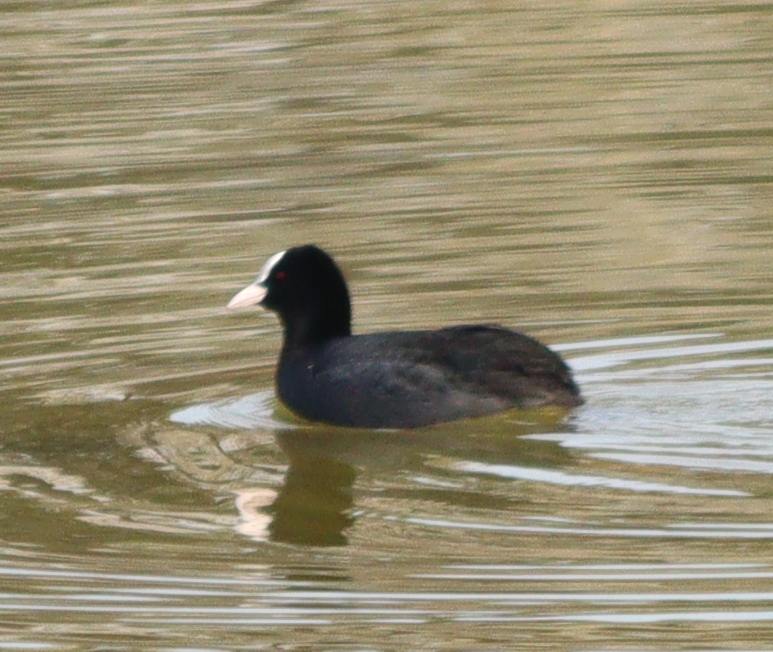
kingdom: Animalia
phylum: Chordata
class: Aves
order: Gruiformes
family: Rallidae
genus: Fulica
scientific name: Fulica atra
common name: Eurasian coot
